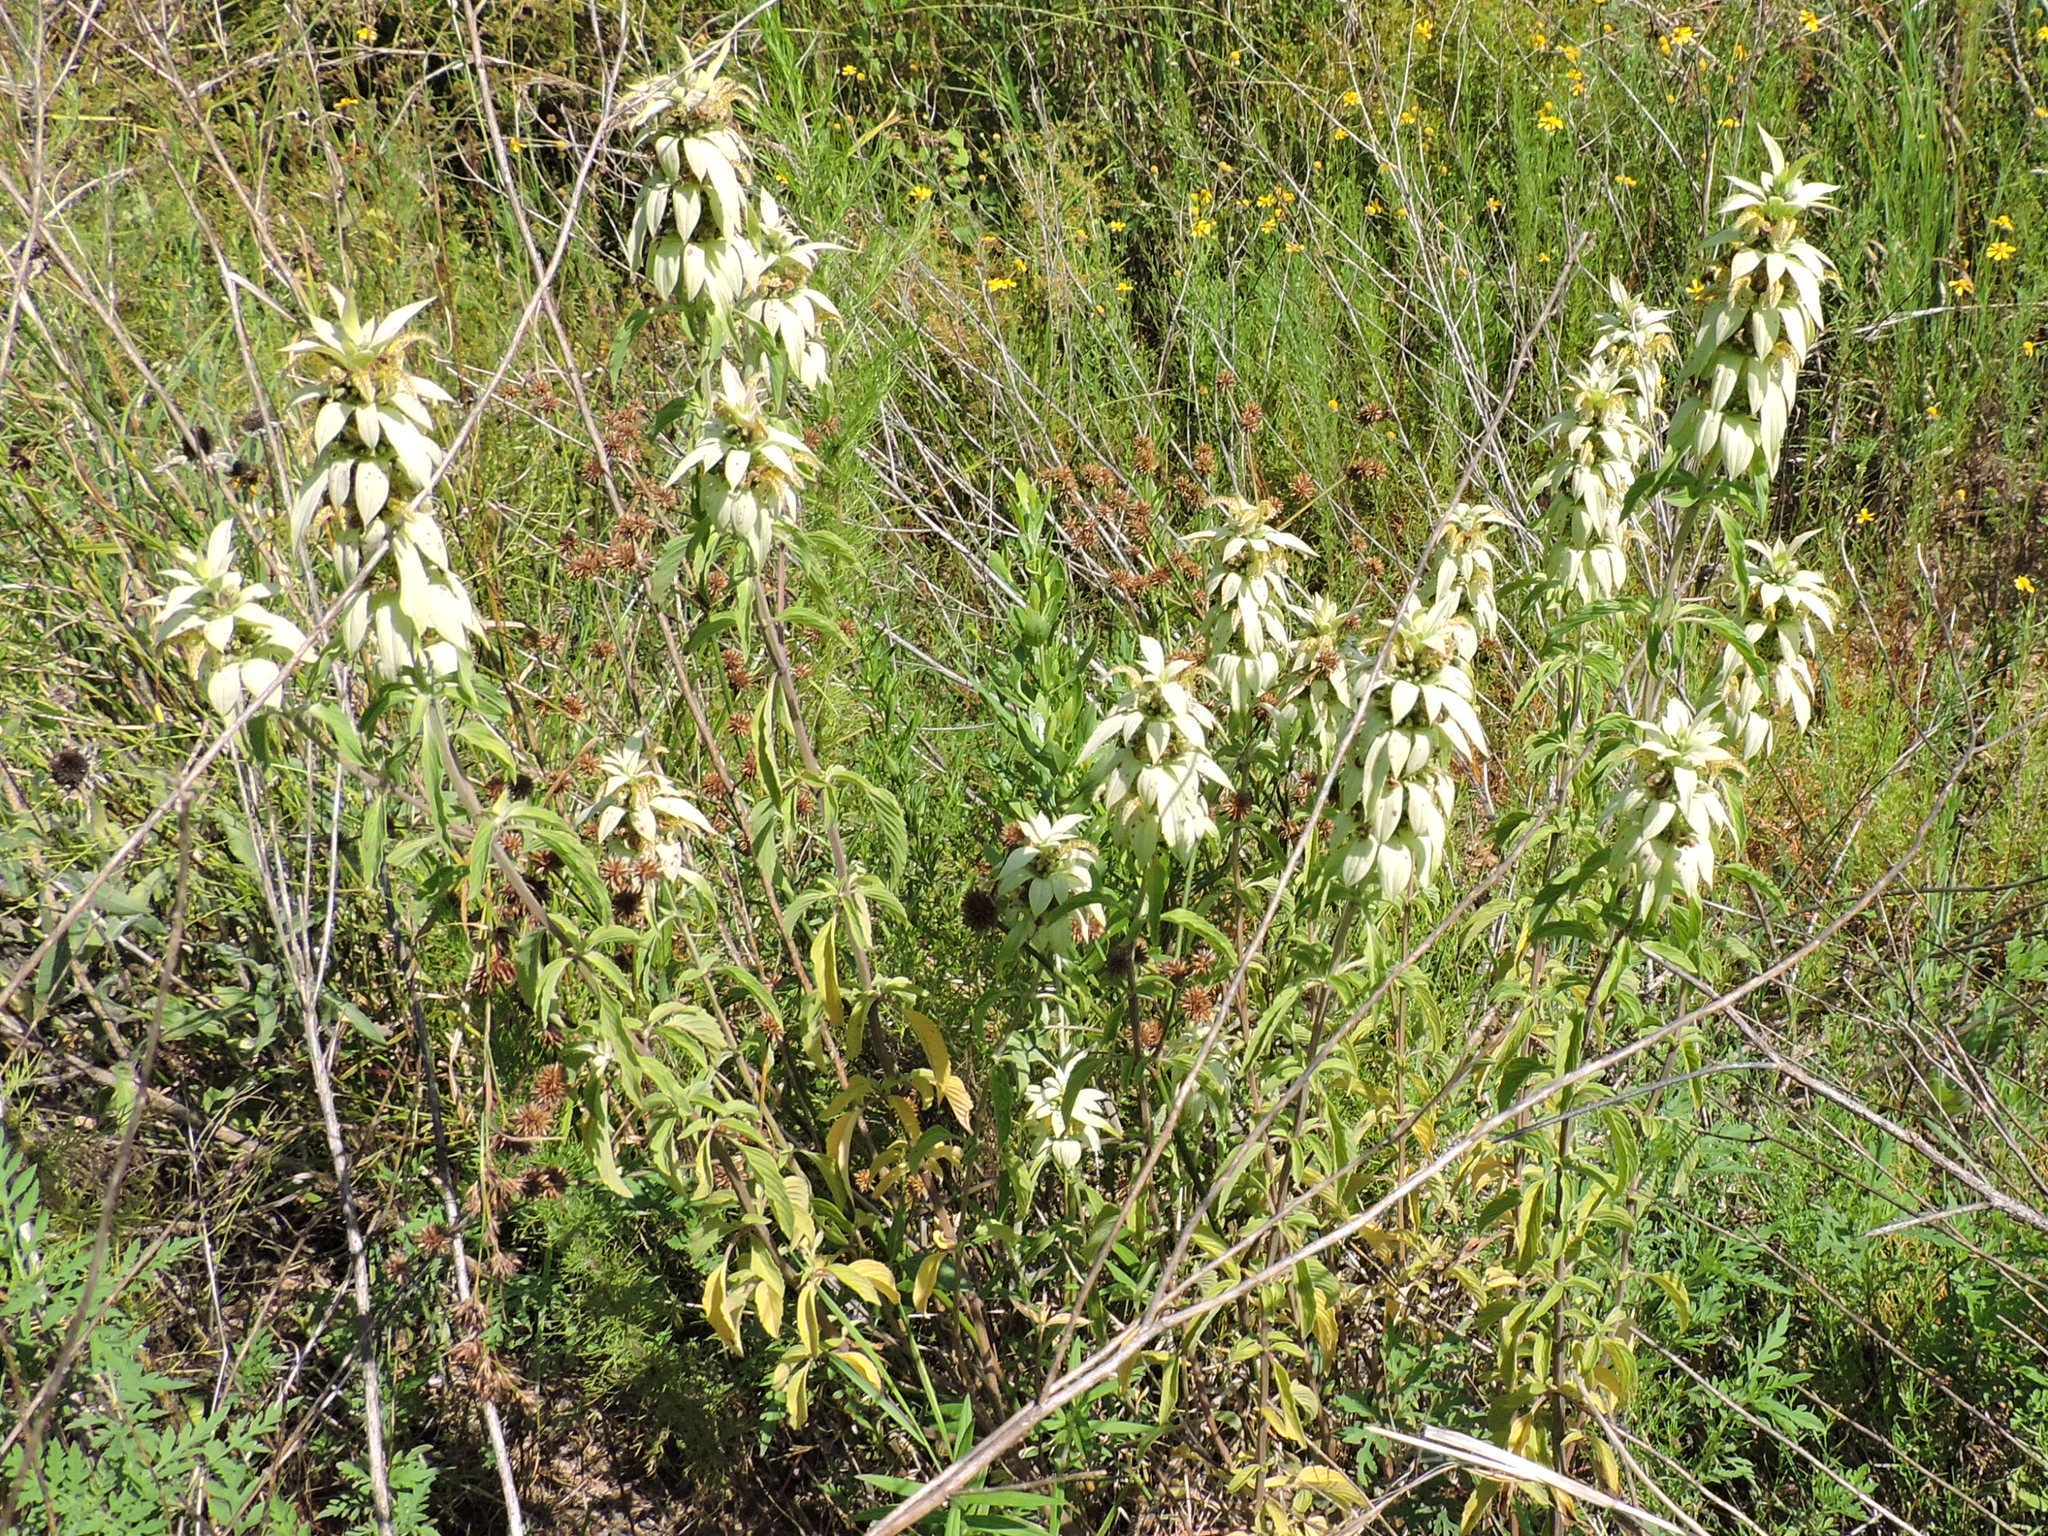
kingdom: Plantae
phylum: Tracheophyta
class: Magnoliopsida
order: Lamiales
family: Lamiaceae
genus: Monarda
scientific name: Monarda punctata
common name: Dotted monarda
